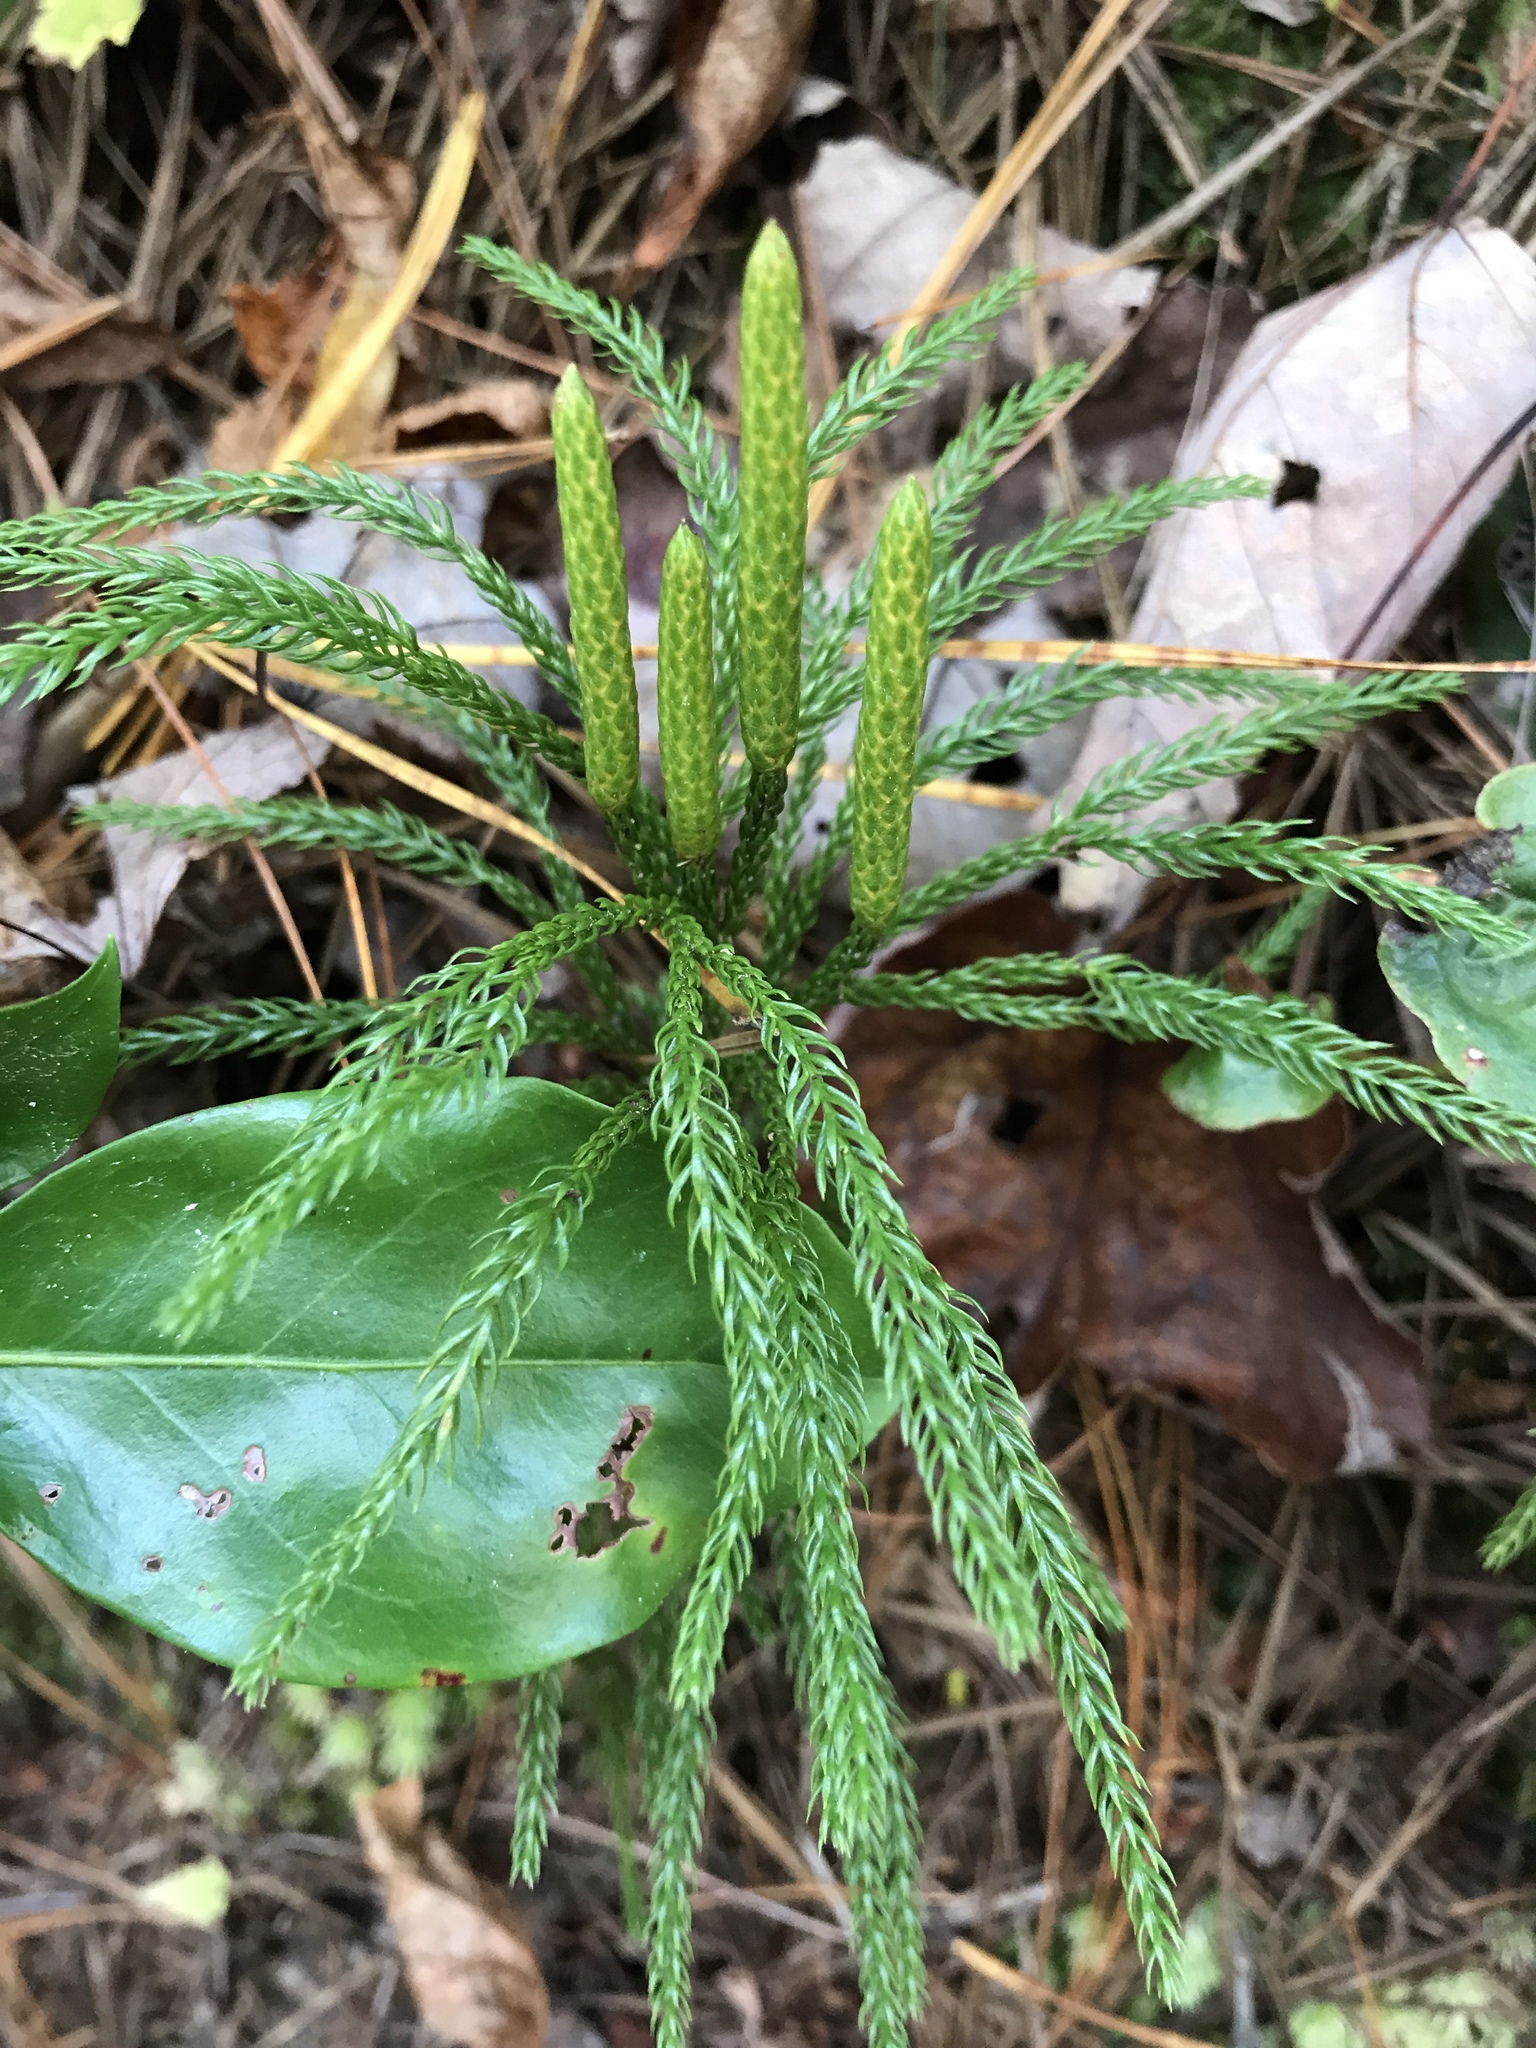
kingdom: Plantae
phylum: Tracheophyta
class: Lycopodiopsida
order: Lycopodiales
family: Lycopodiaceae
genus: Dendrolycopodium
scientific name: Dendrolycopodium hickeyi
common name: Hickey's clubmoss
